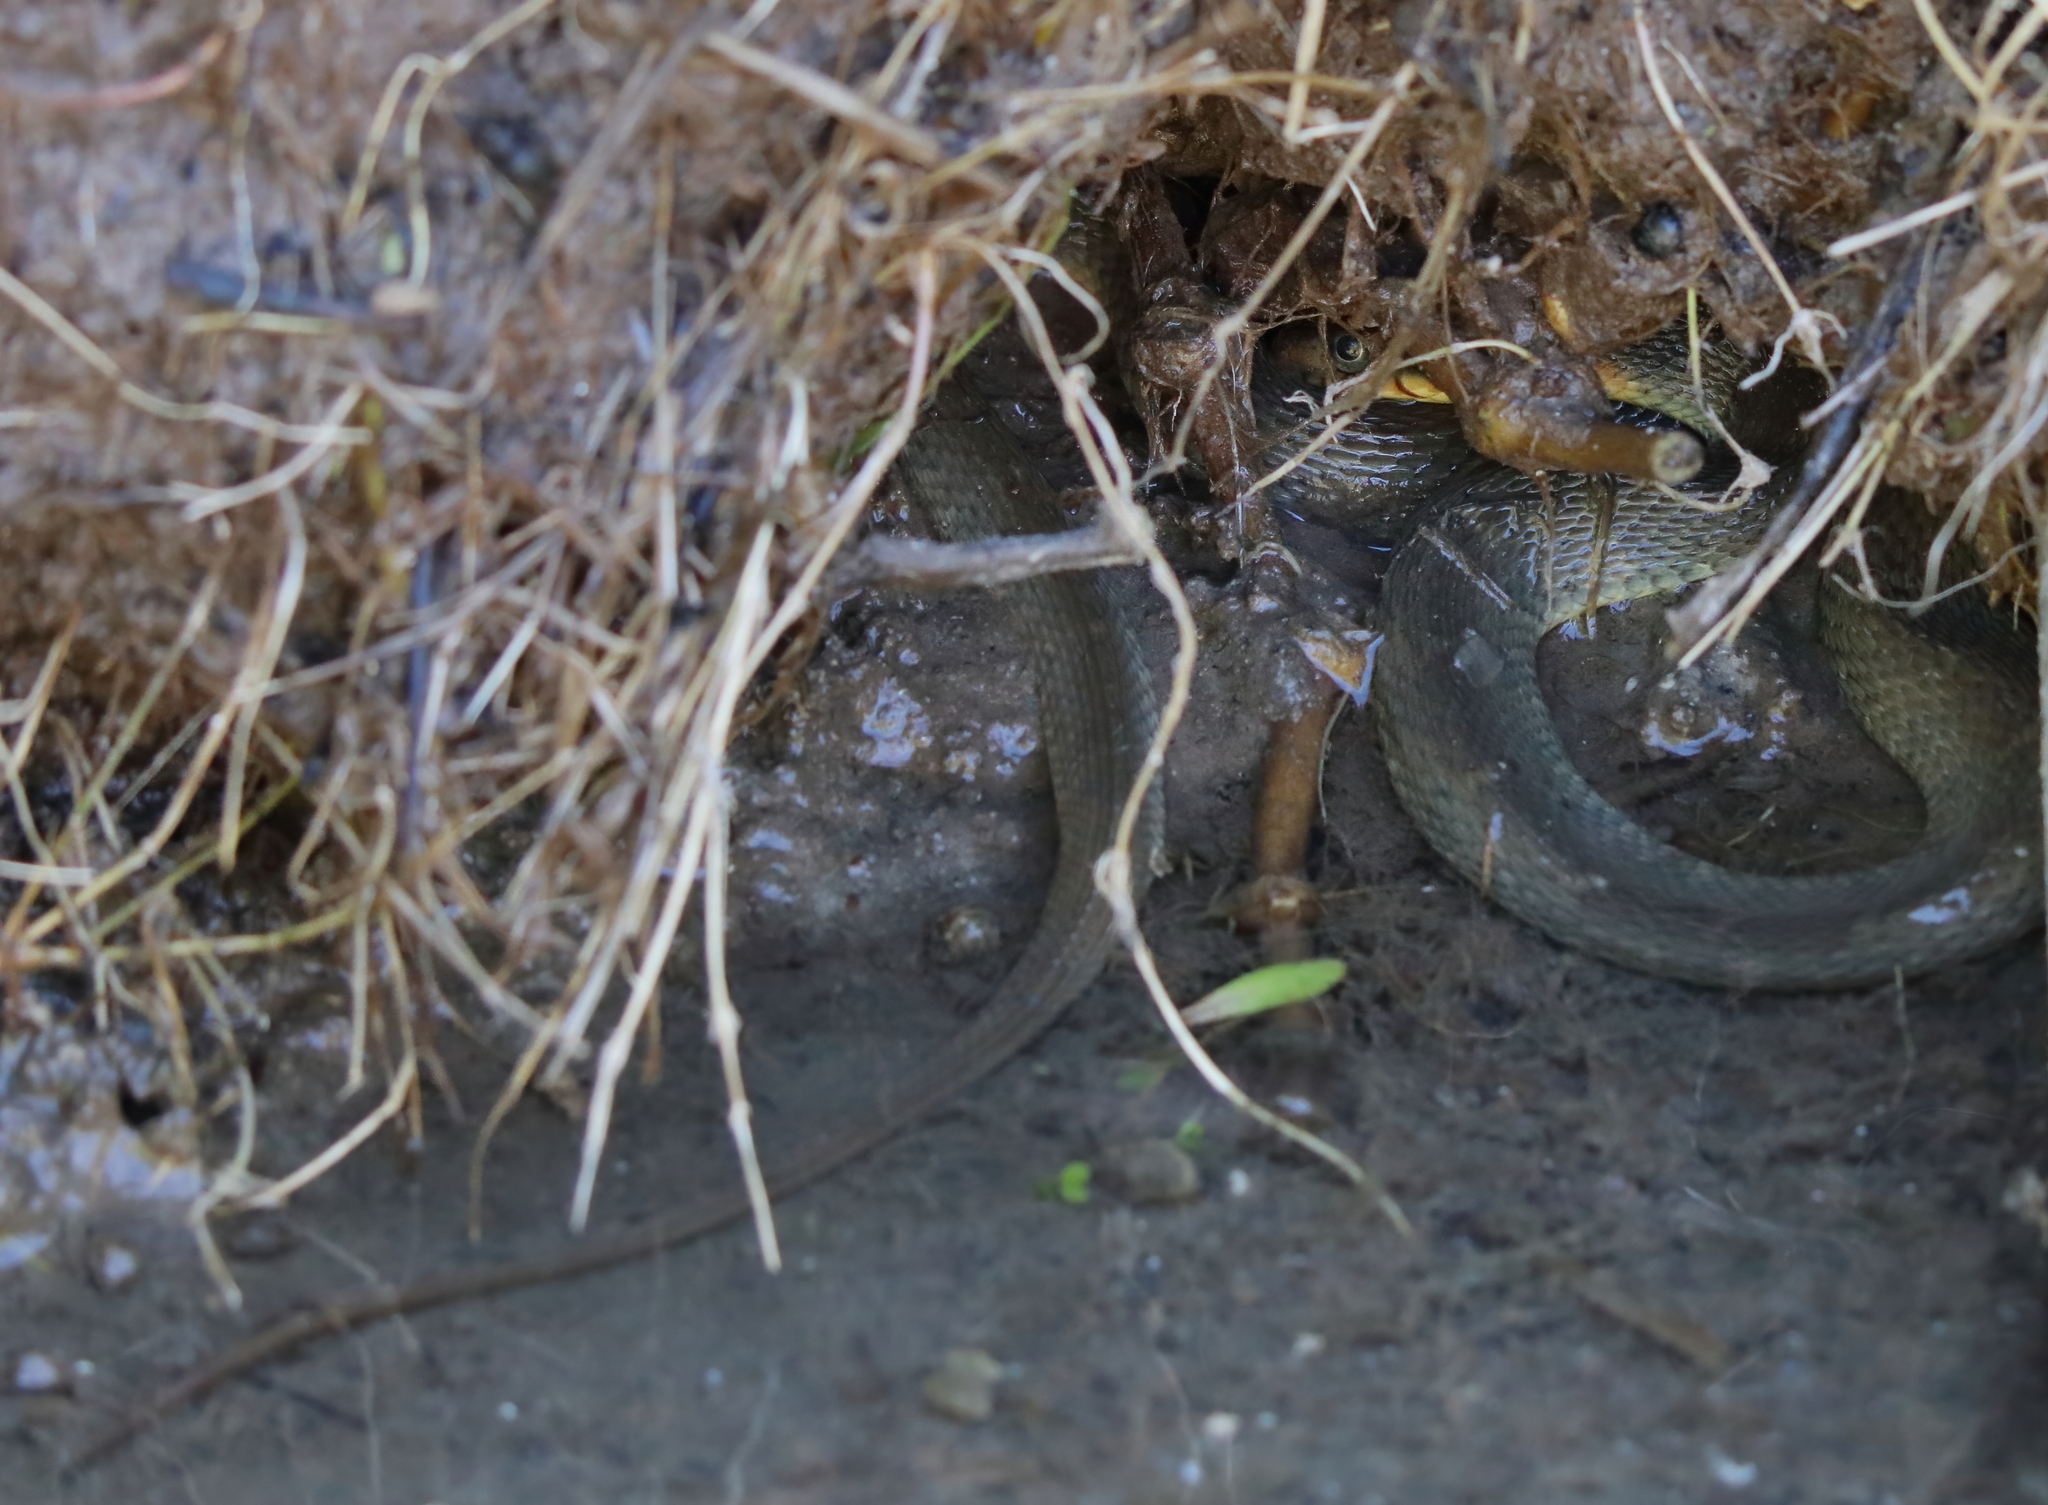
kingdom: Animalia
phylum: Chordata
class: Squamata
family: Colubridae
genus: Nerodia
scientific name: Nerodia erythrogaster
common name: Plainbelly water snake
